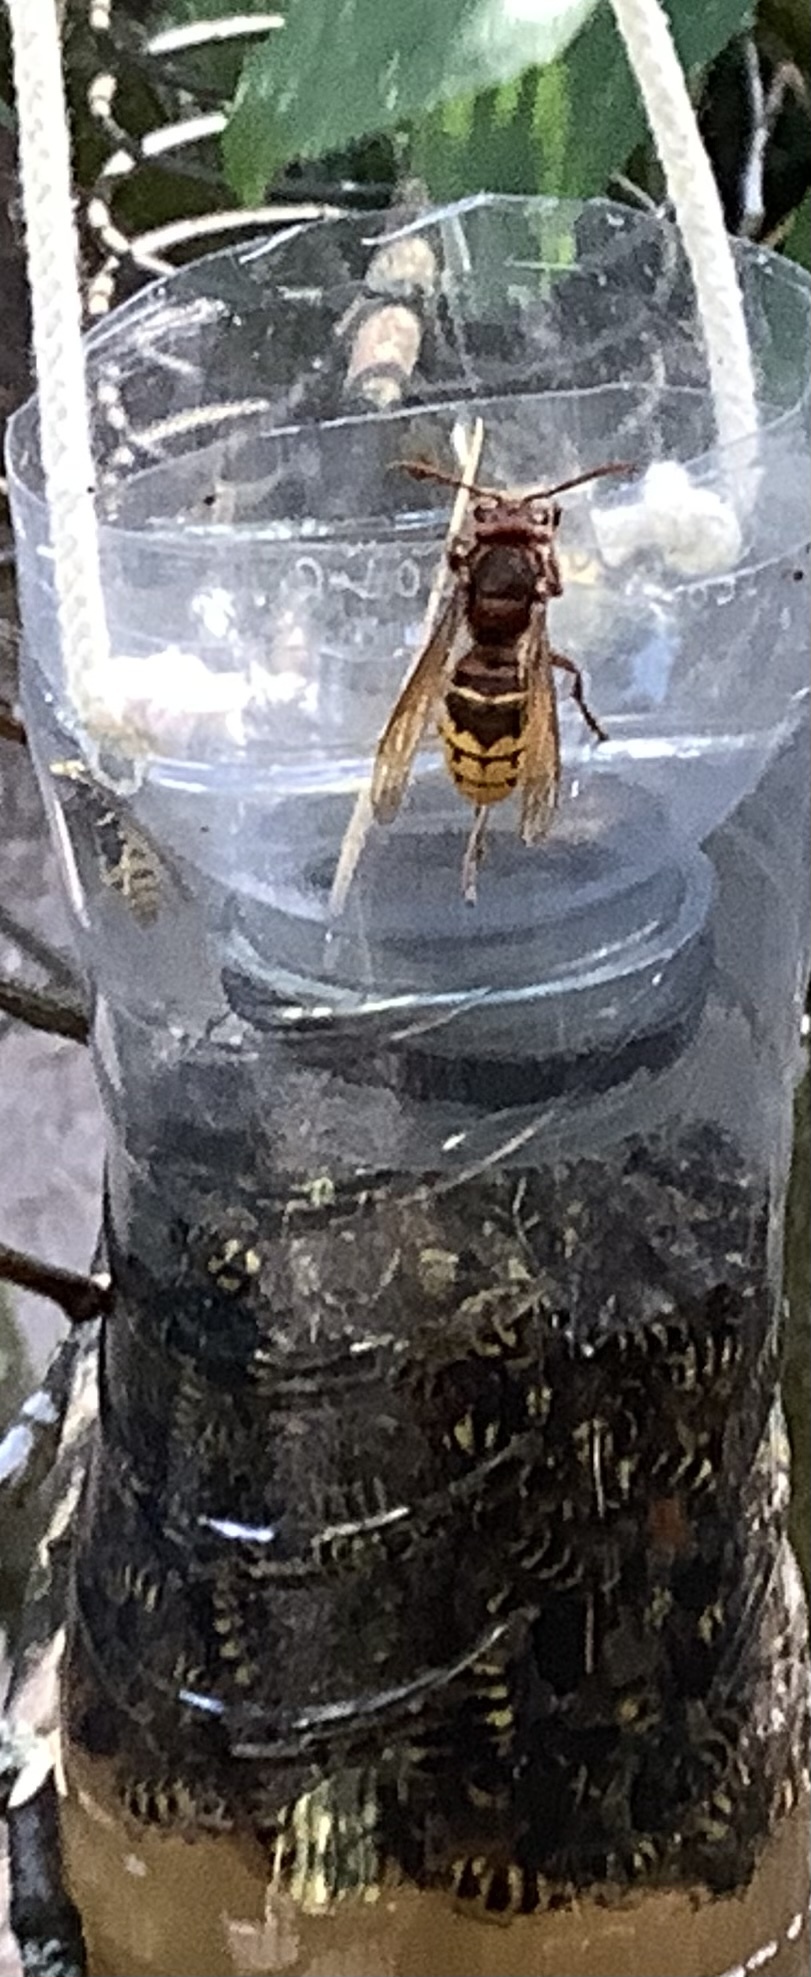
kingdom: Animalia
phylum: Arthropoda
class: Insecta
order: Hymenoptera
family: Vespidae
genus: Vespa
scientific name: Vespa crabro
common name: Hornet
